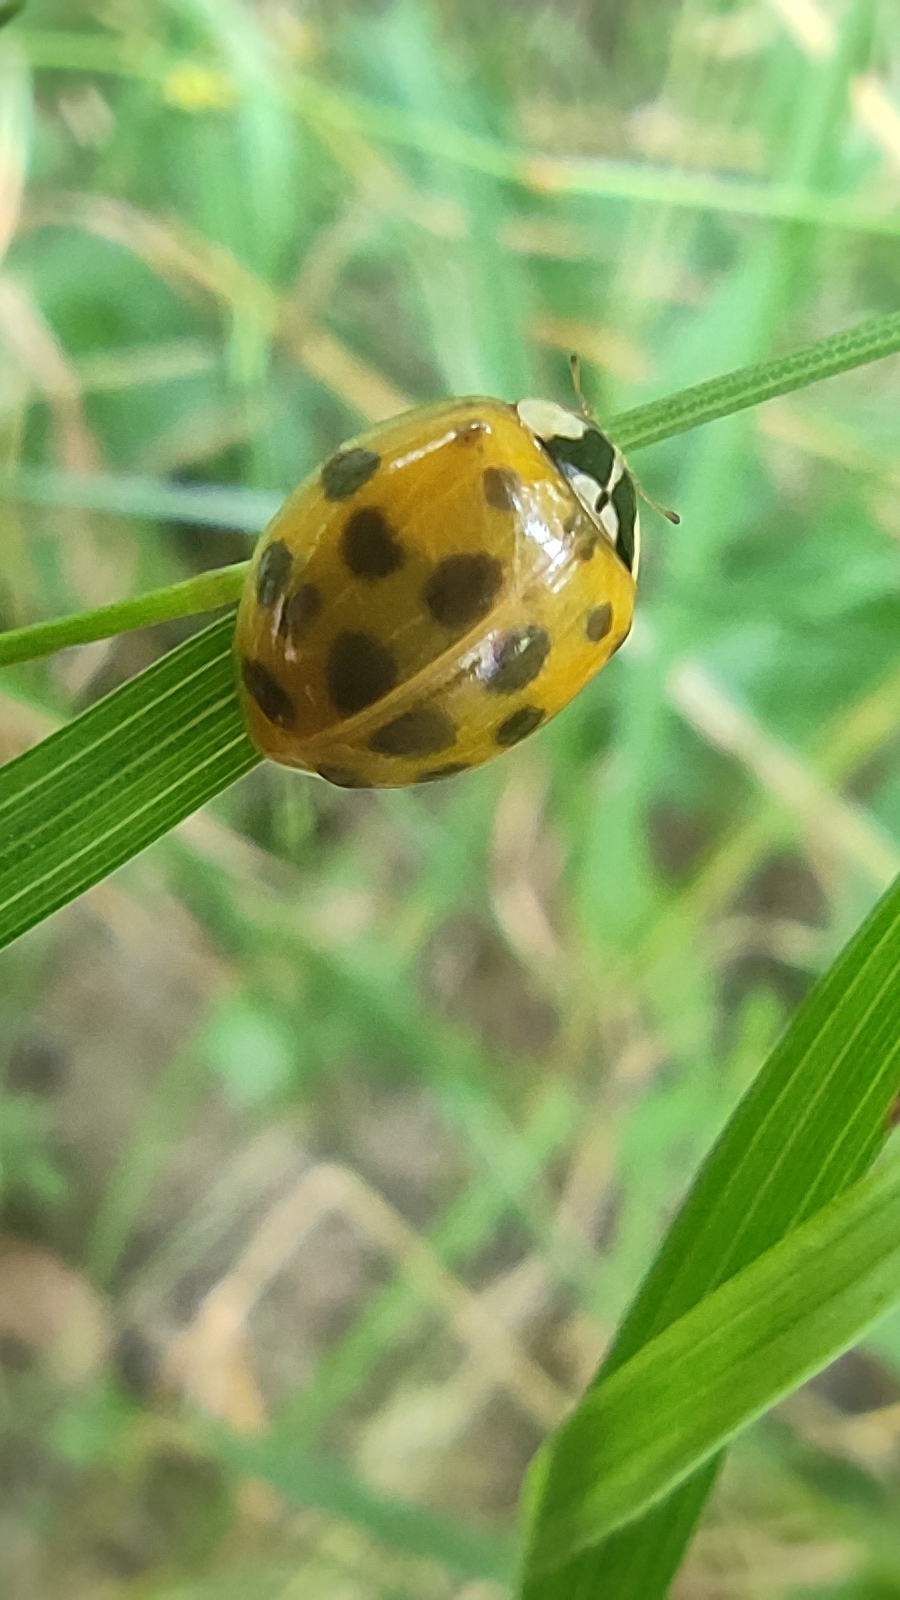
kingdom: Animalia
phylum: Arthropoda
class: Insecta
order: Coleoptera
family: Coccinellidae
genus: Harmonia
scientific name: Harmonia axyridis
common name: Harlequin ladybird
